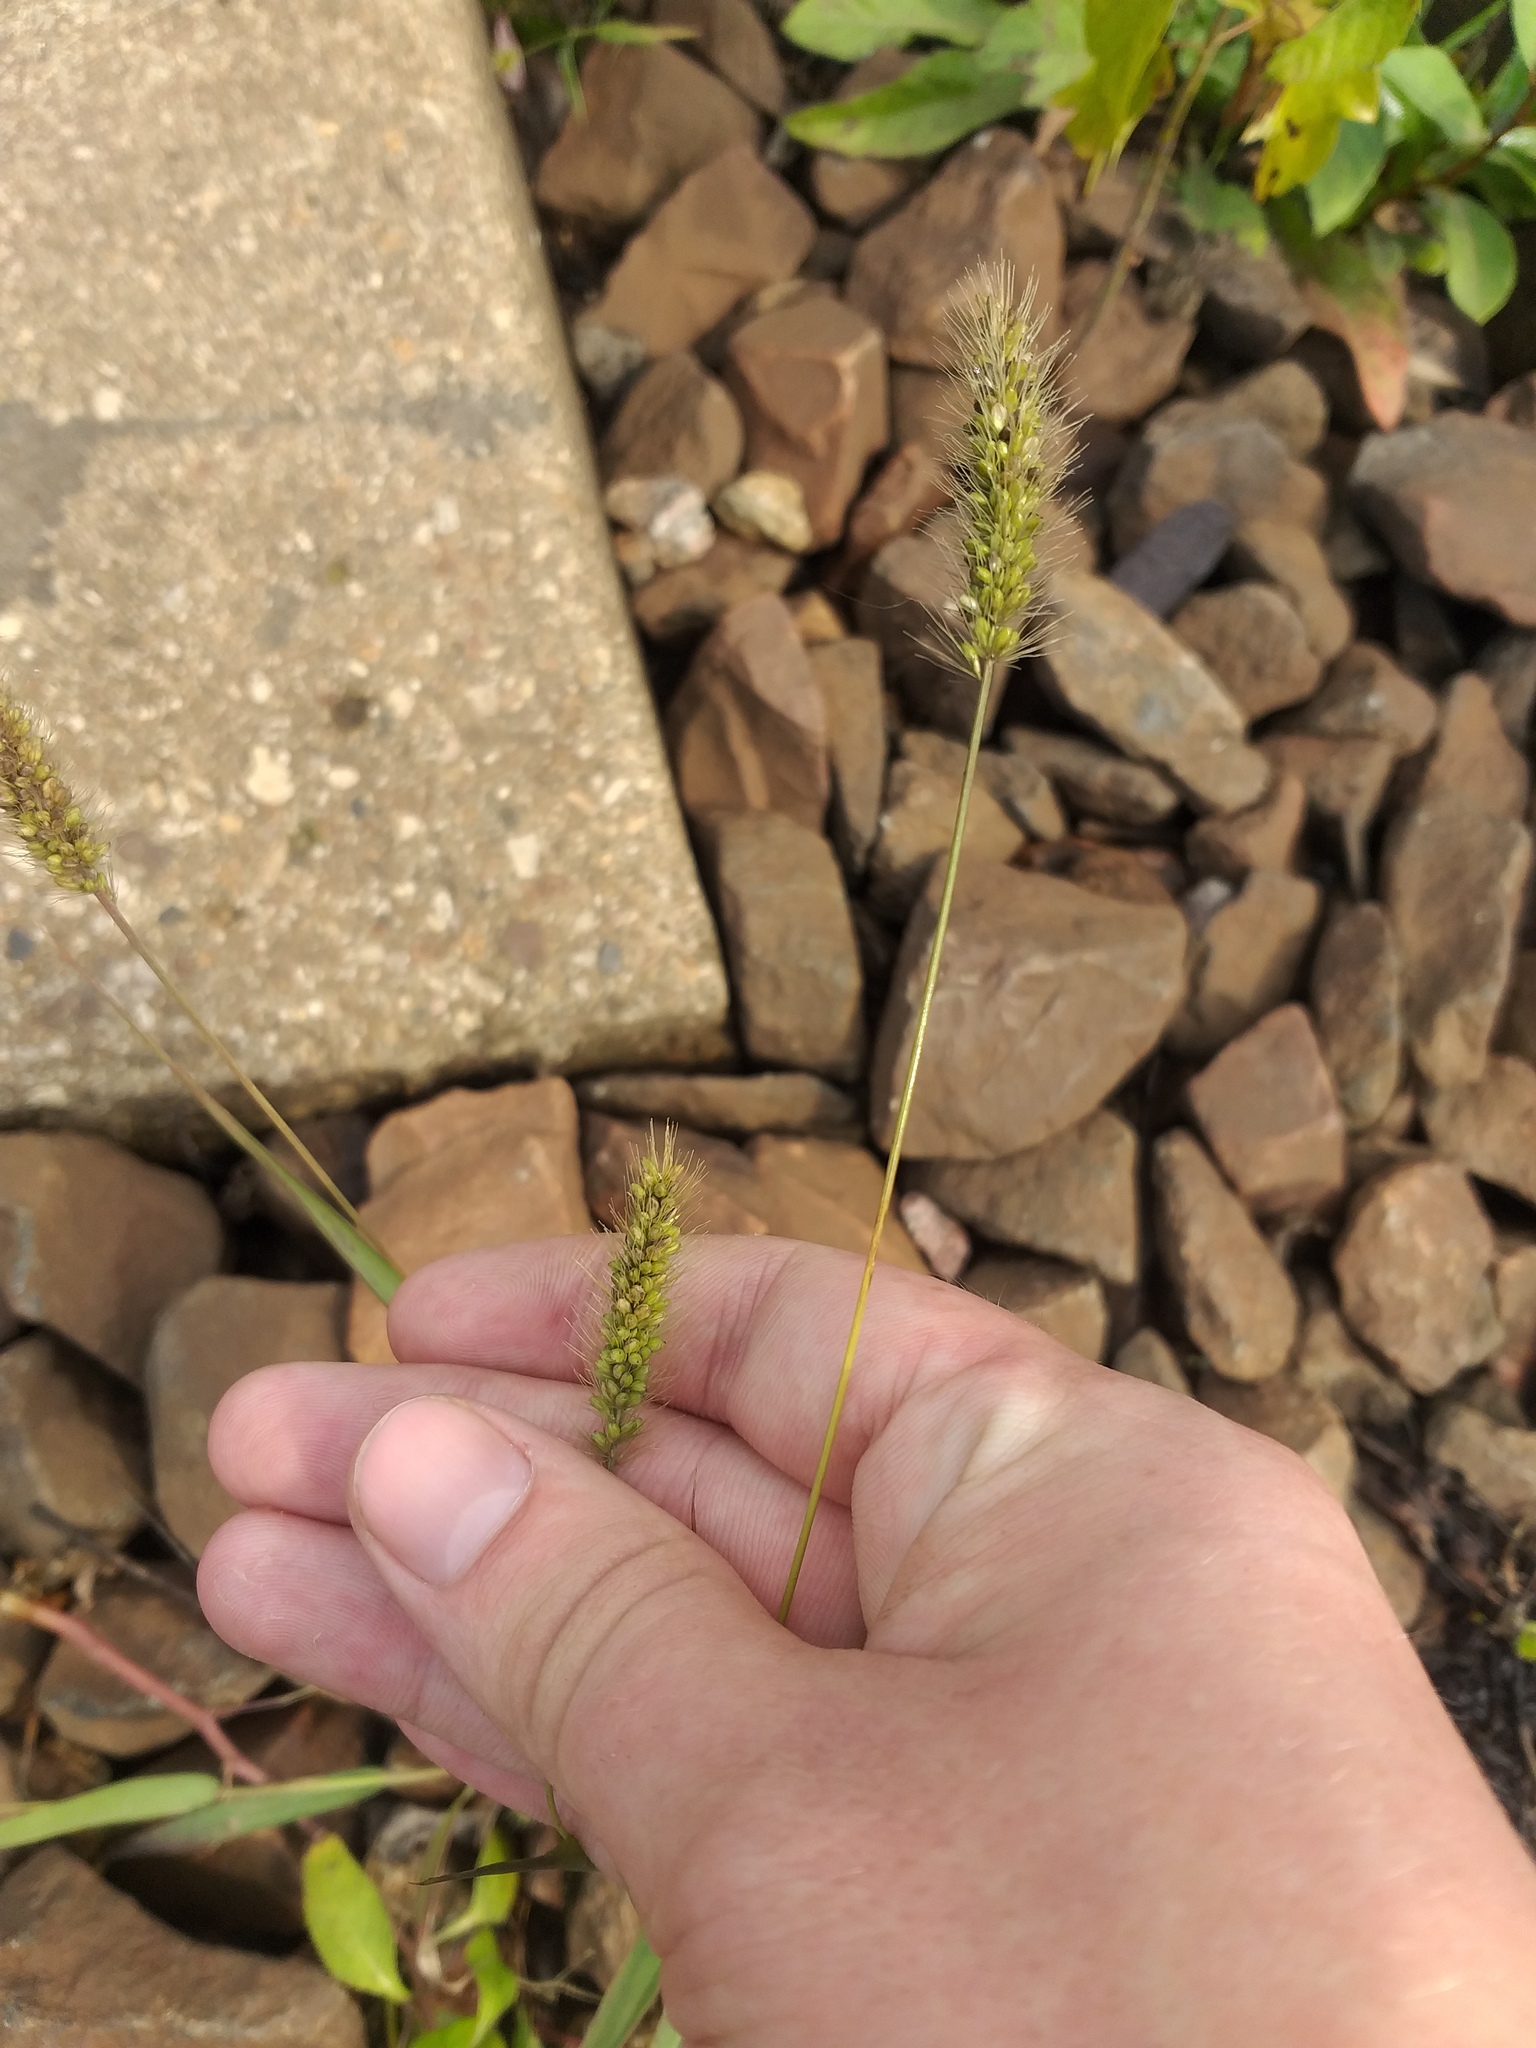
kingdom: Plantae
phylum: Tracheophyta
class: Liliopsida
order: Poales
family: Poaceae
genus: Setaria
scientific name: Setaria viridis
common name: Green bristlegrass
